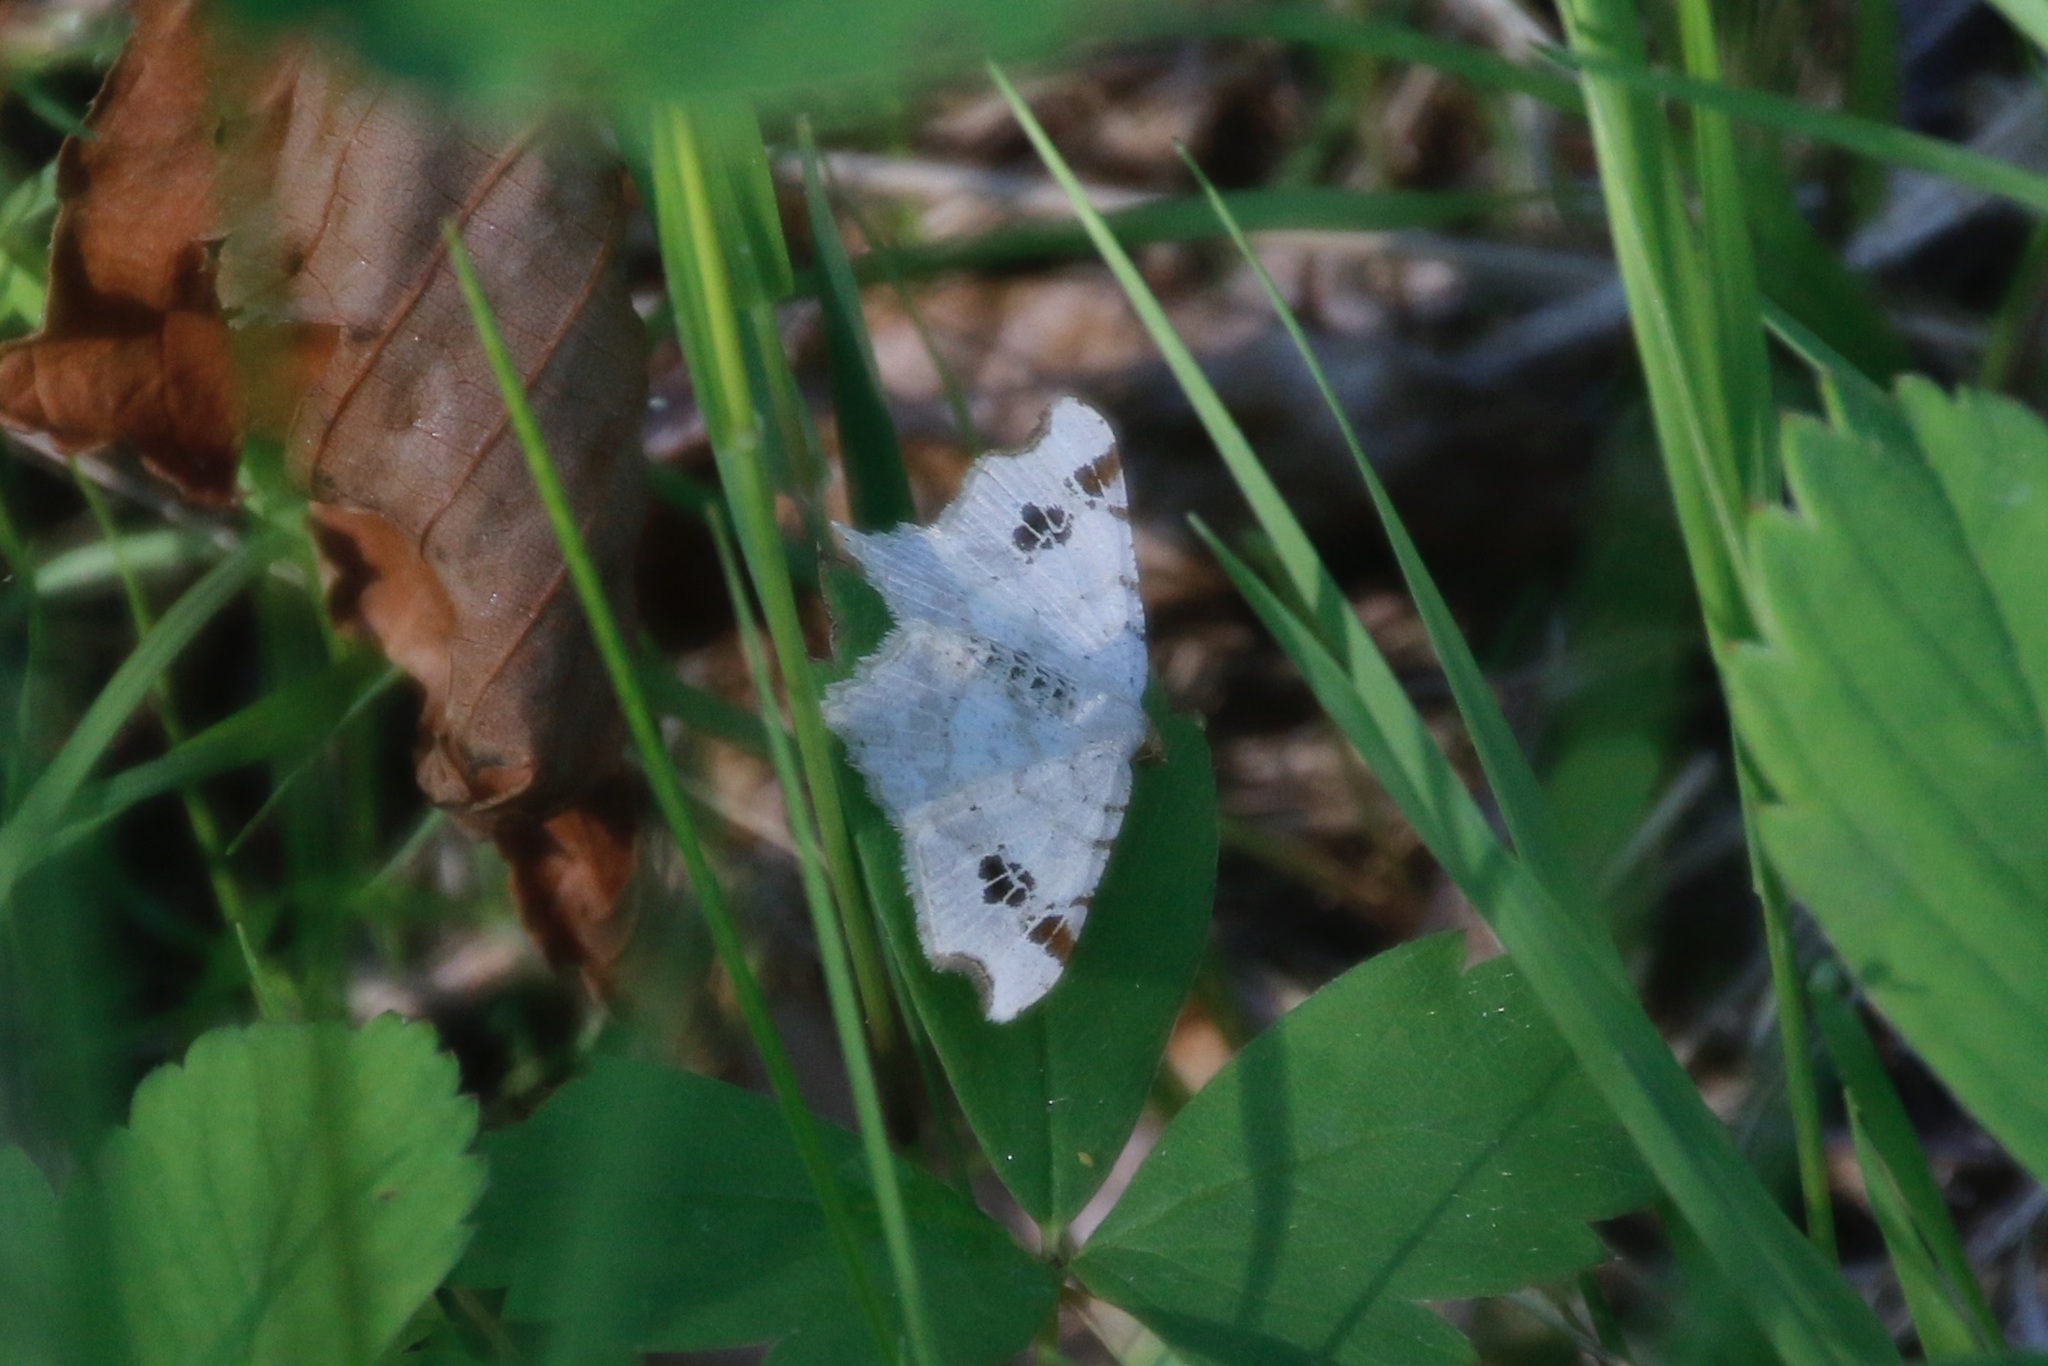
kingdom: Animalia
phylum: Arthropoda
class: Insecta
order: Lepidoptera
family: Geometridae
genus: Macaria
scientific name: Macaria ulsterata
